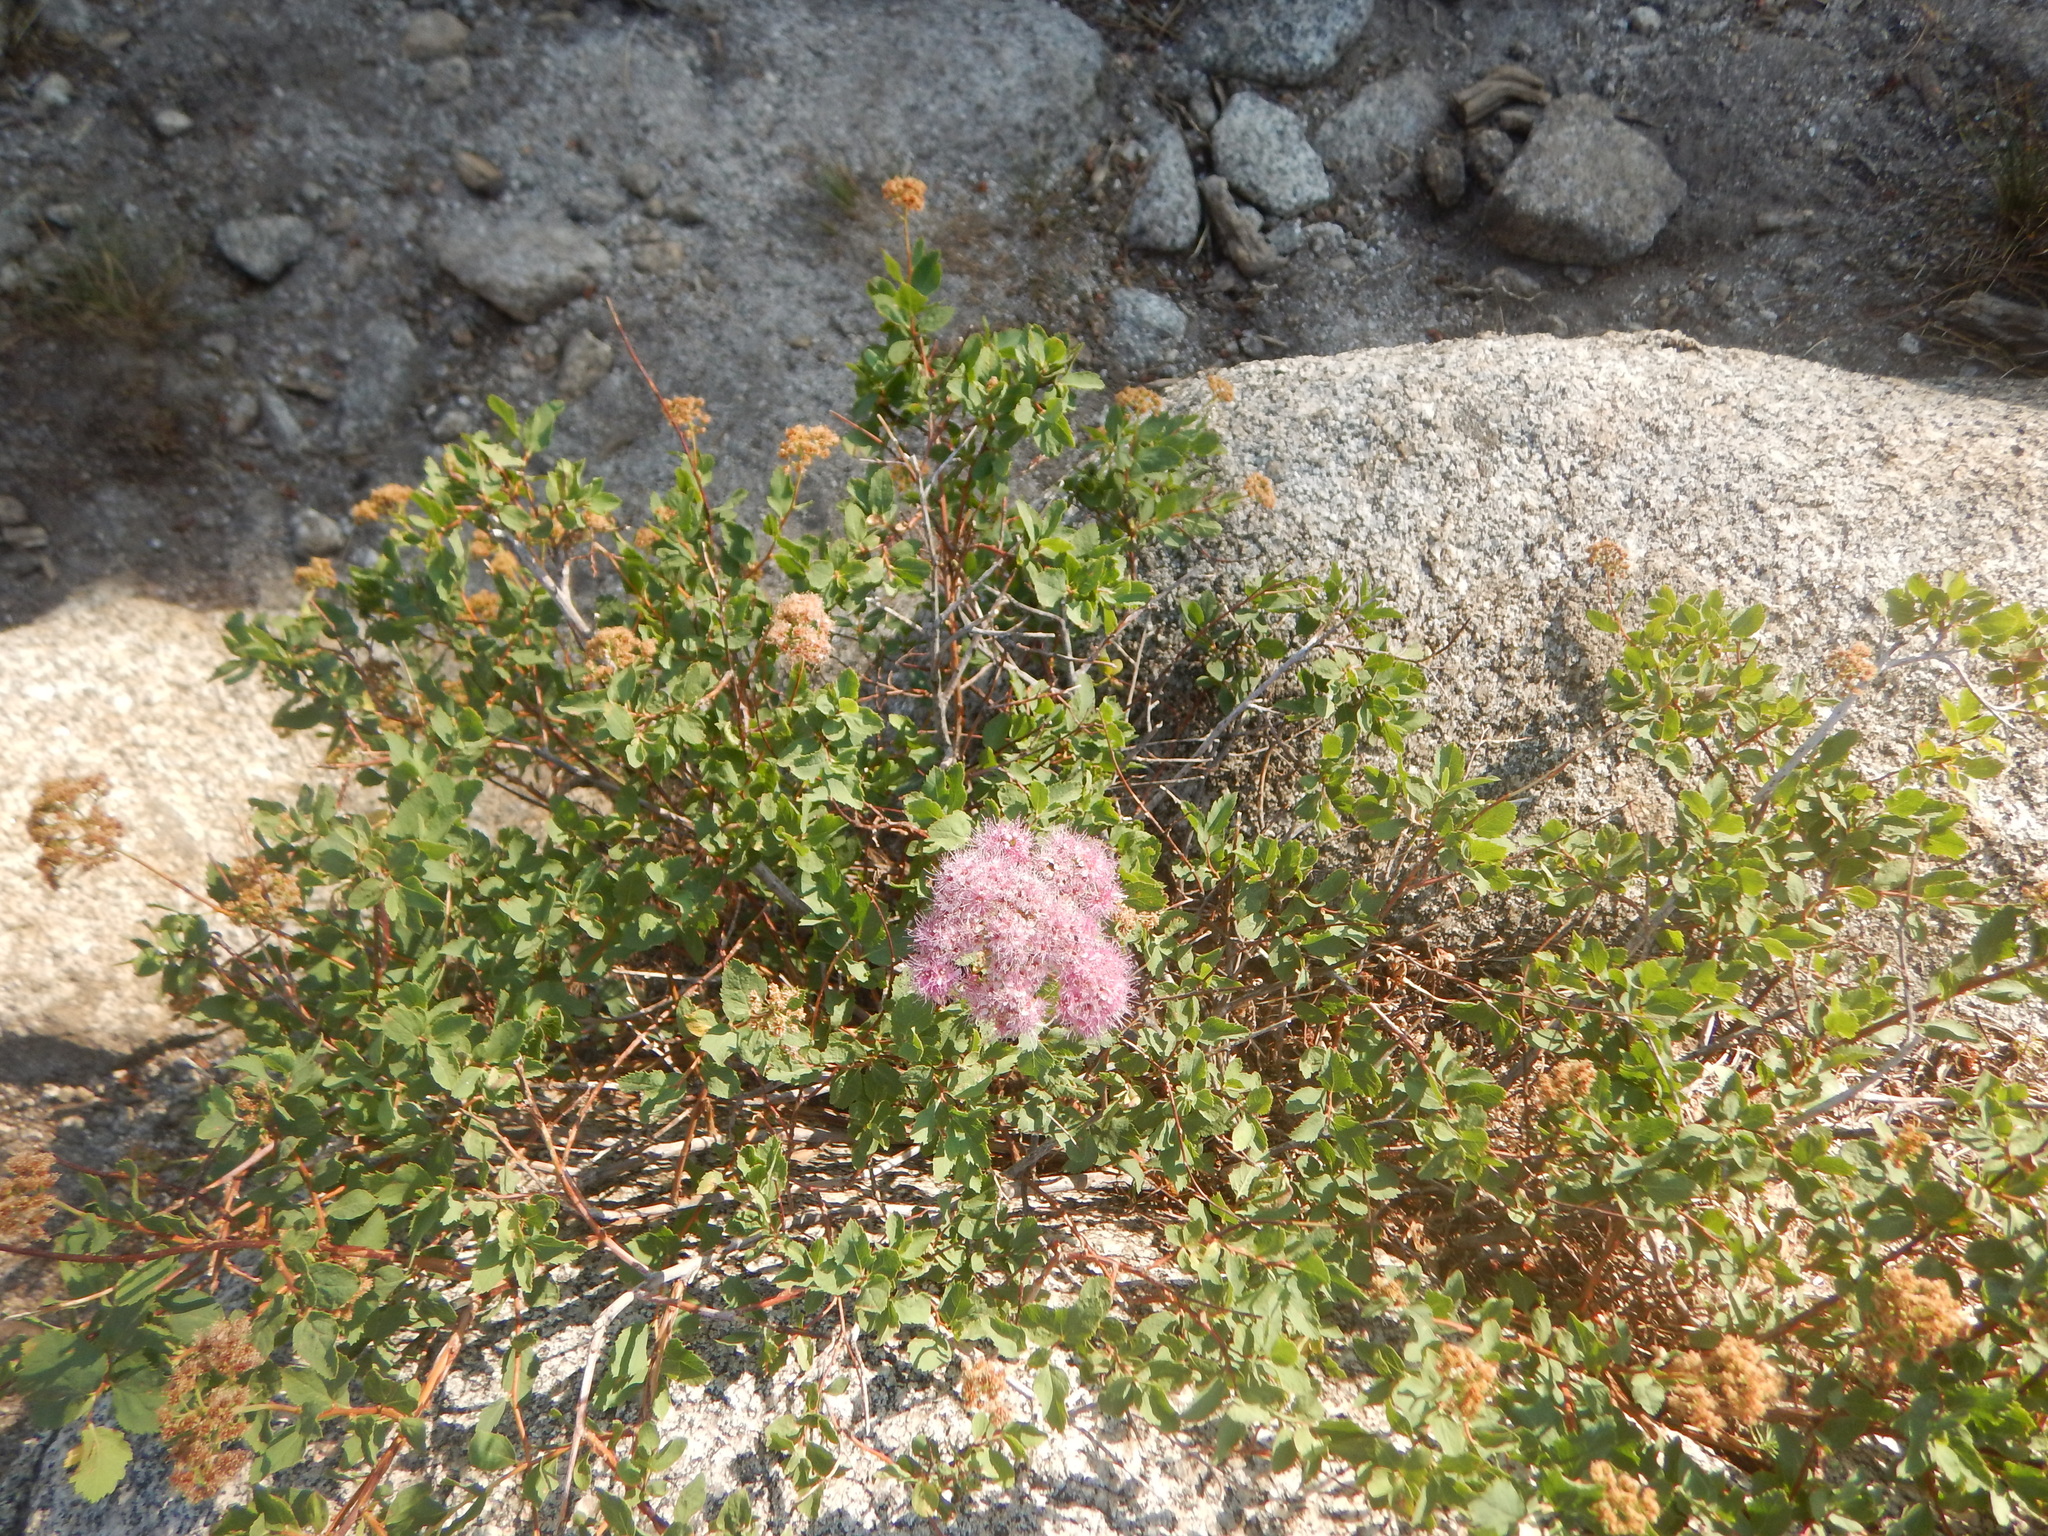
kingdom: Plantae
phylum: Tracheophyta
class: Magnoliopsida
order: Rosales
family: Rosaceae
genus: Spiraea
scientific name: Spiraea splendens
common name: Subalpine meadowsweet
